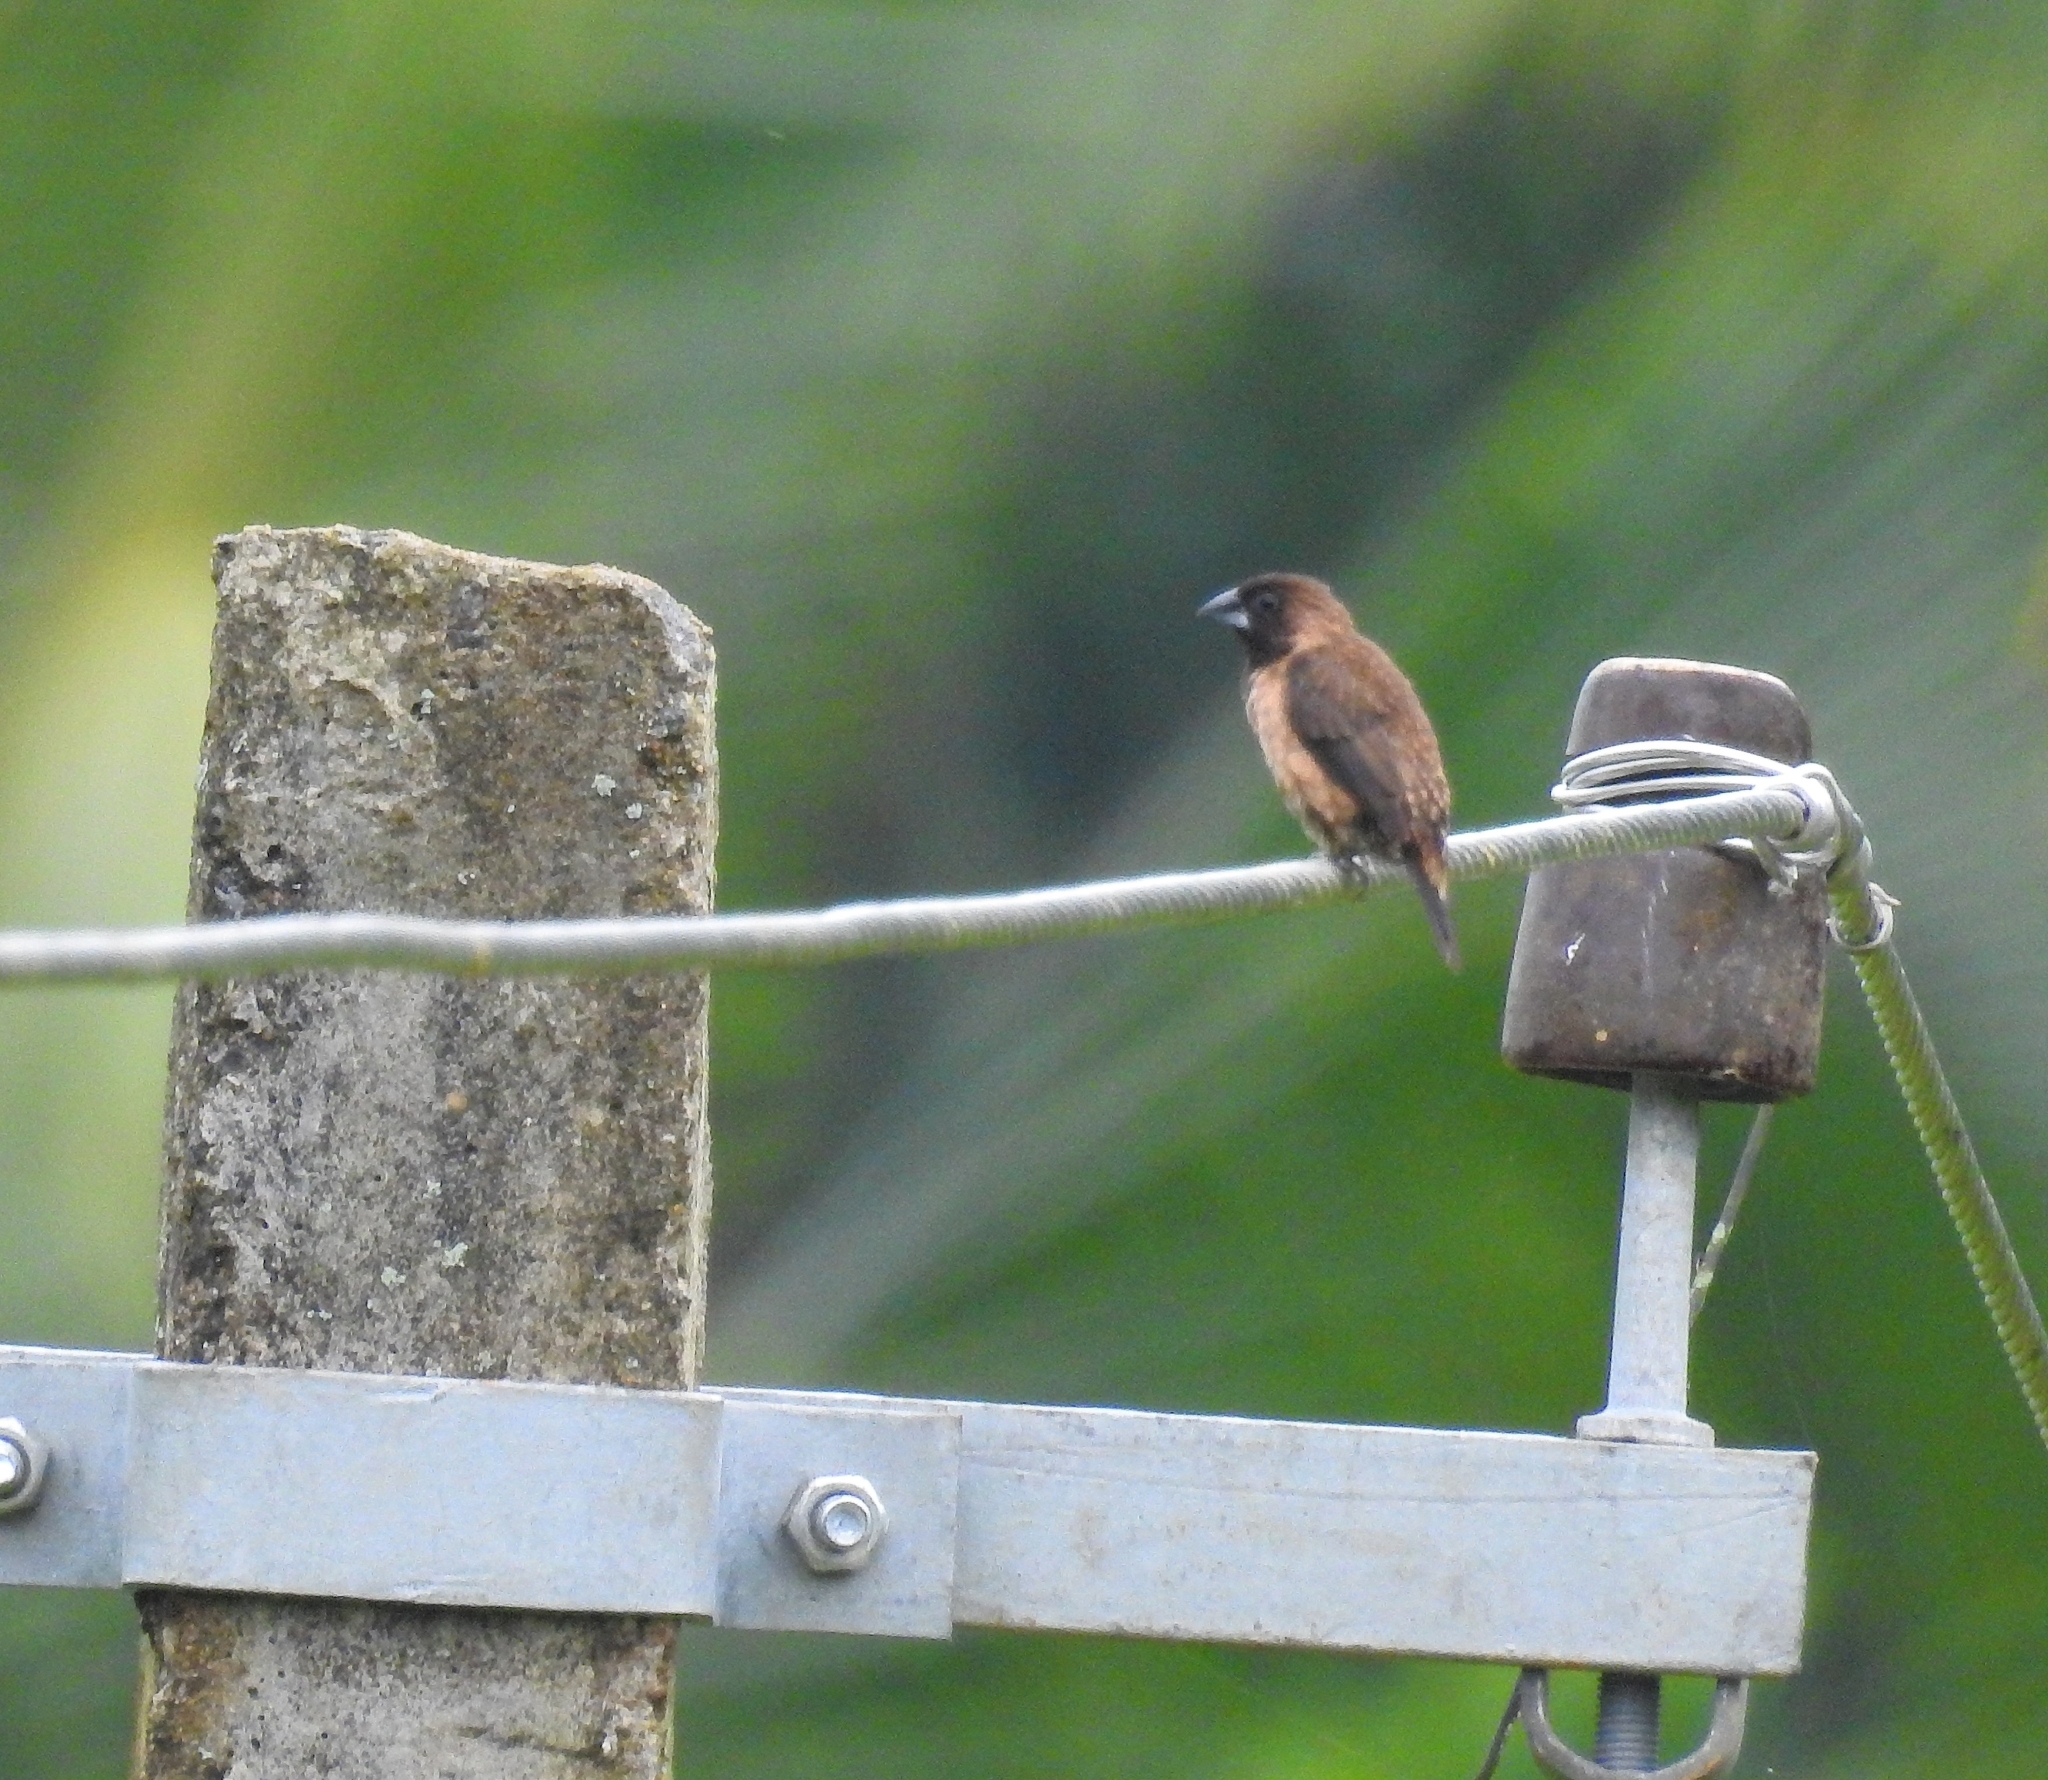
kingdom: Animalia
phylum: Chordata
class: Aves
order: Passeriformes
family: Estrildidae
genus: Lonchura
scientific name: Lonchura kelaarti
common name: Black-throated munia
